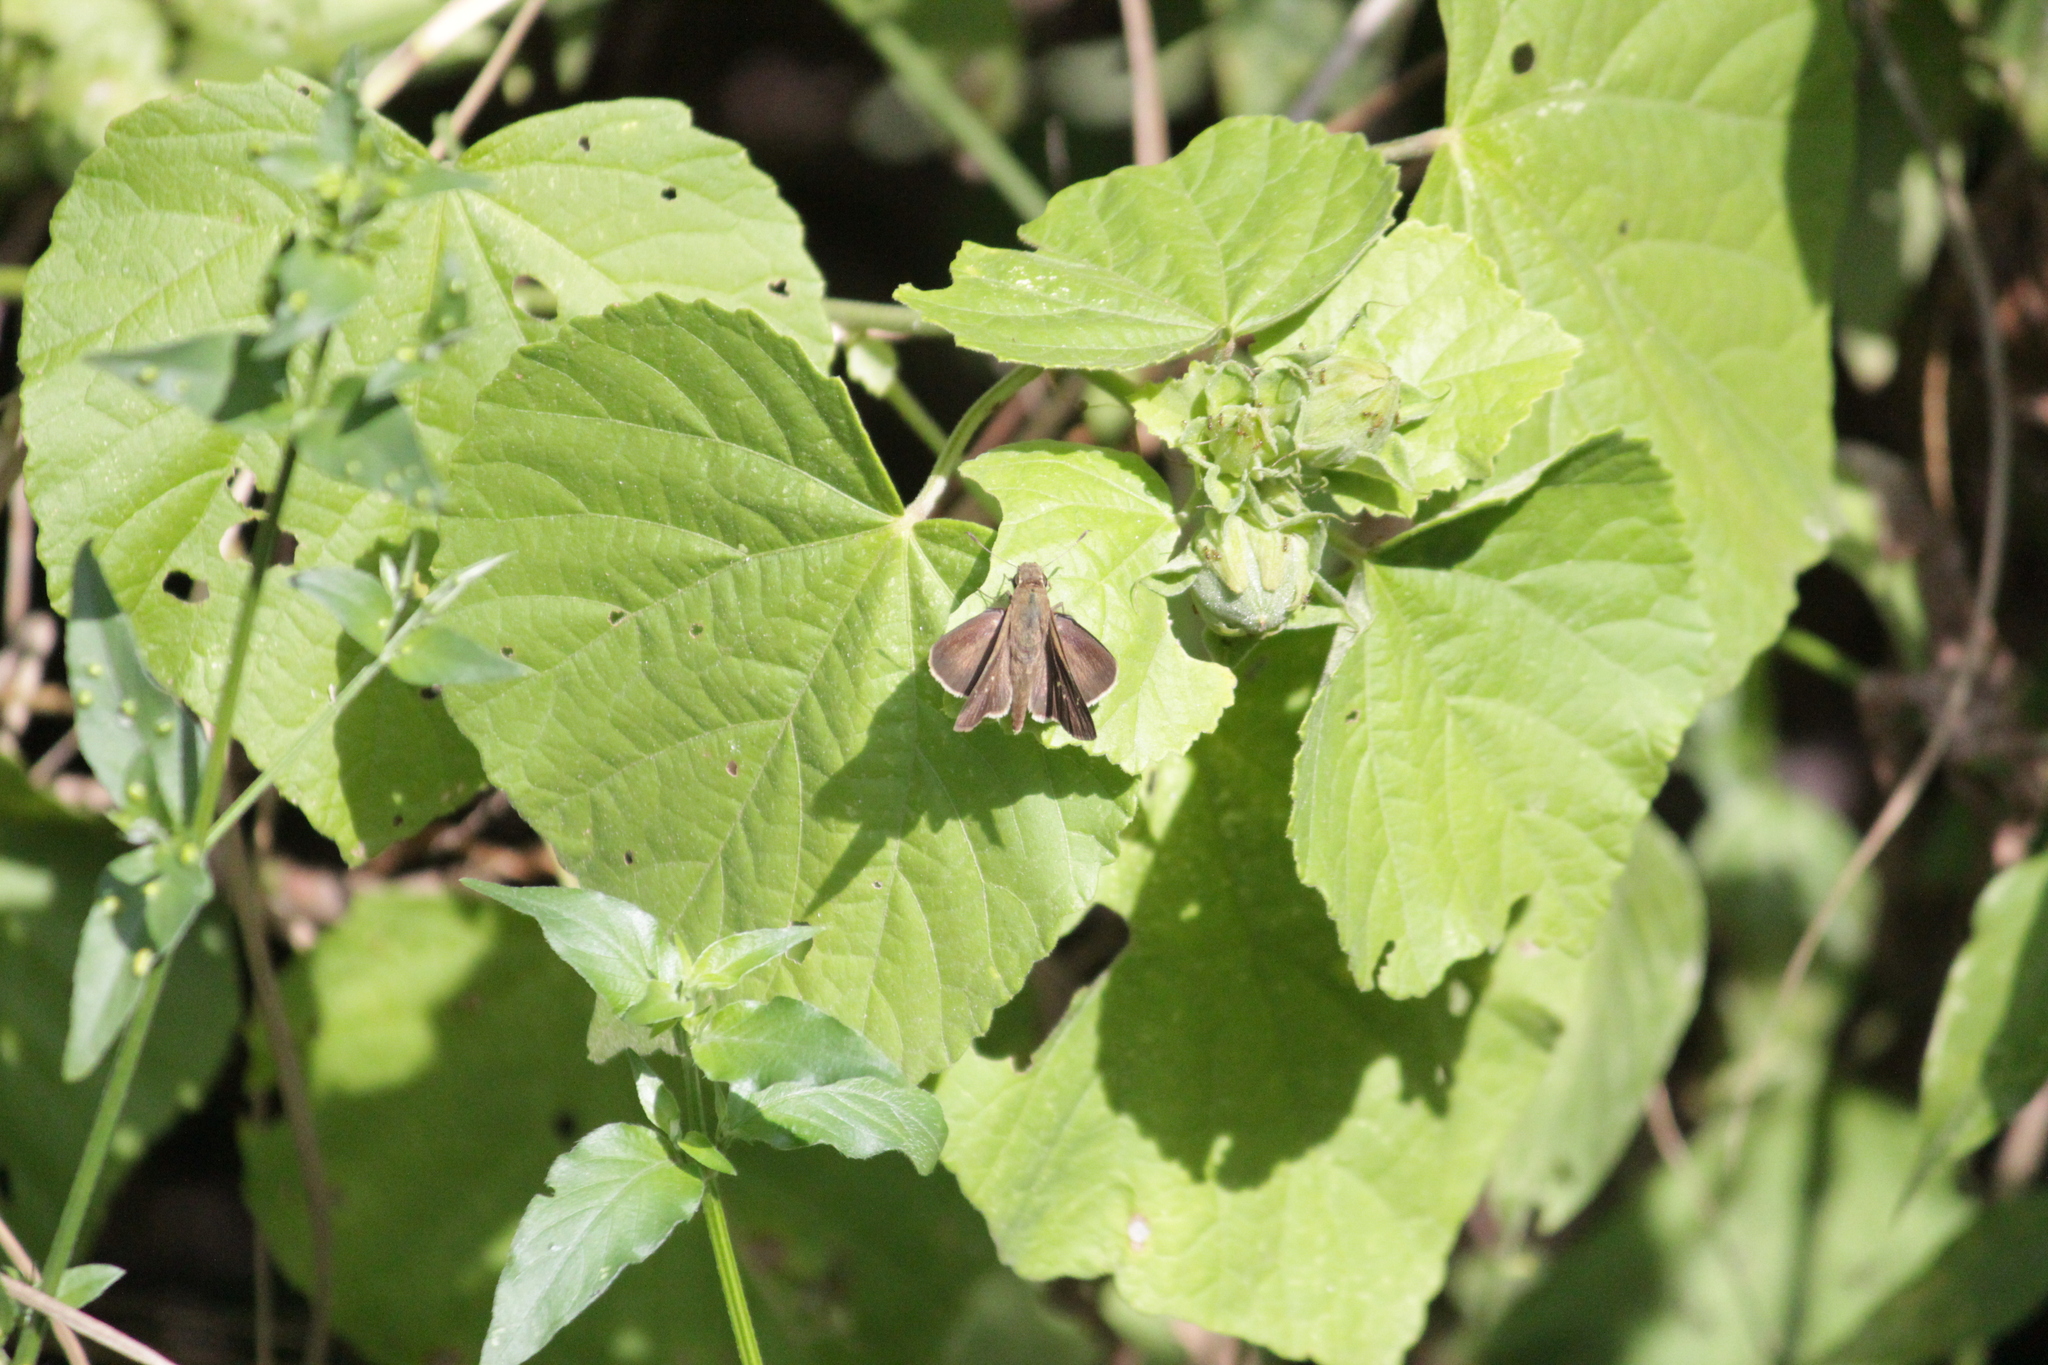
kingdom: Animalia
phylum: Arthropoda
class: Insecta
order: Lepidoptera
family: Hesperiidae
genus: Baoris
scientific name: Baoris fatuellus
